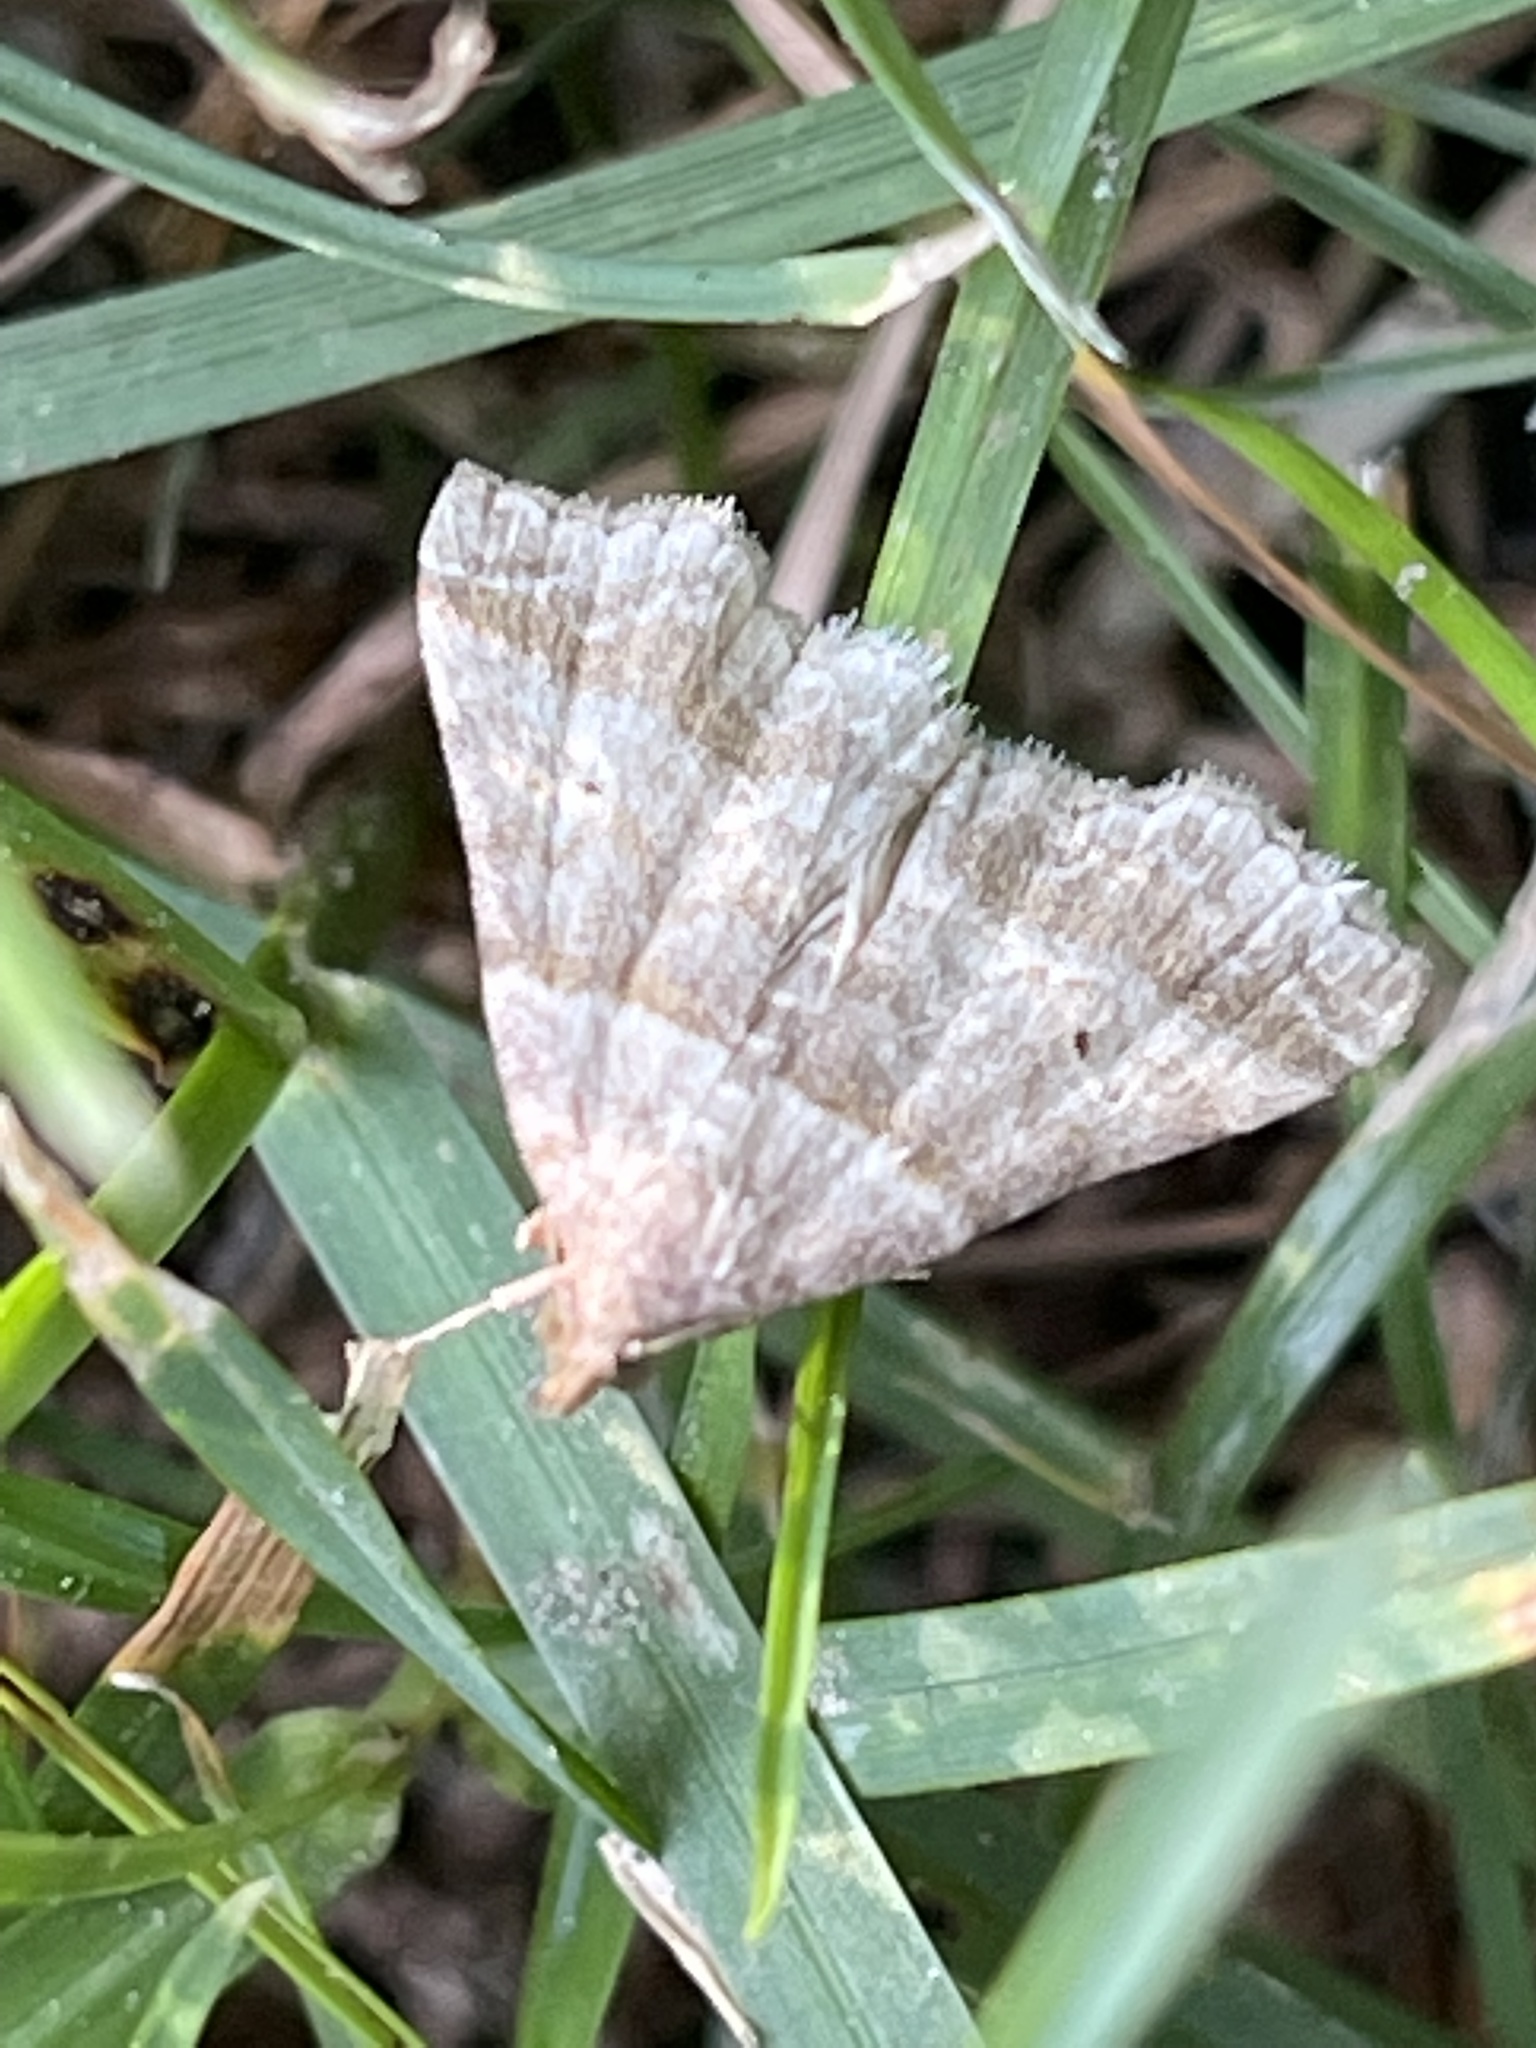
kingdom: Animalia
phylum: Arthropoda
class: Insecta
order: Lepidoptera
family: Erebidae
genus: Phaeolita
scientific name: Phaeolita pyramusalis
